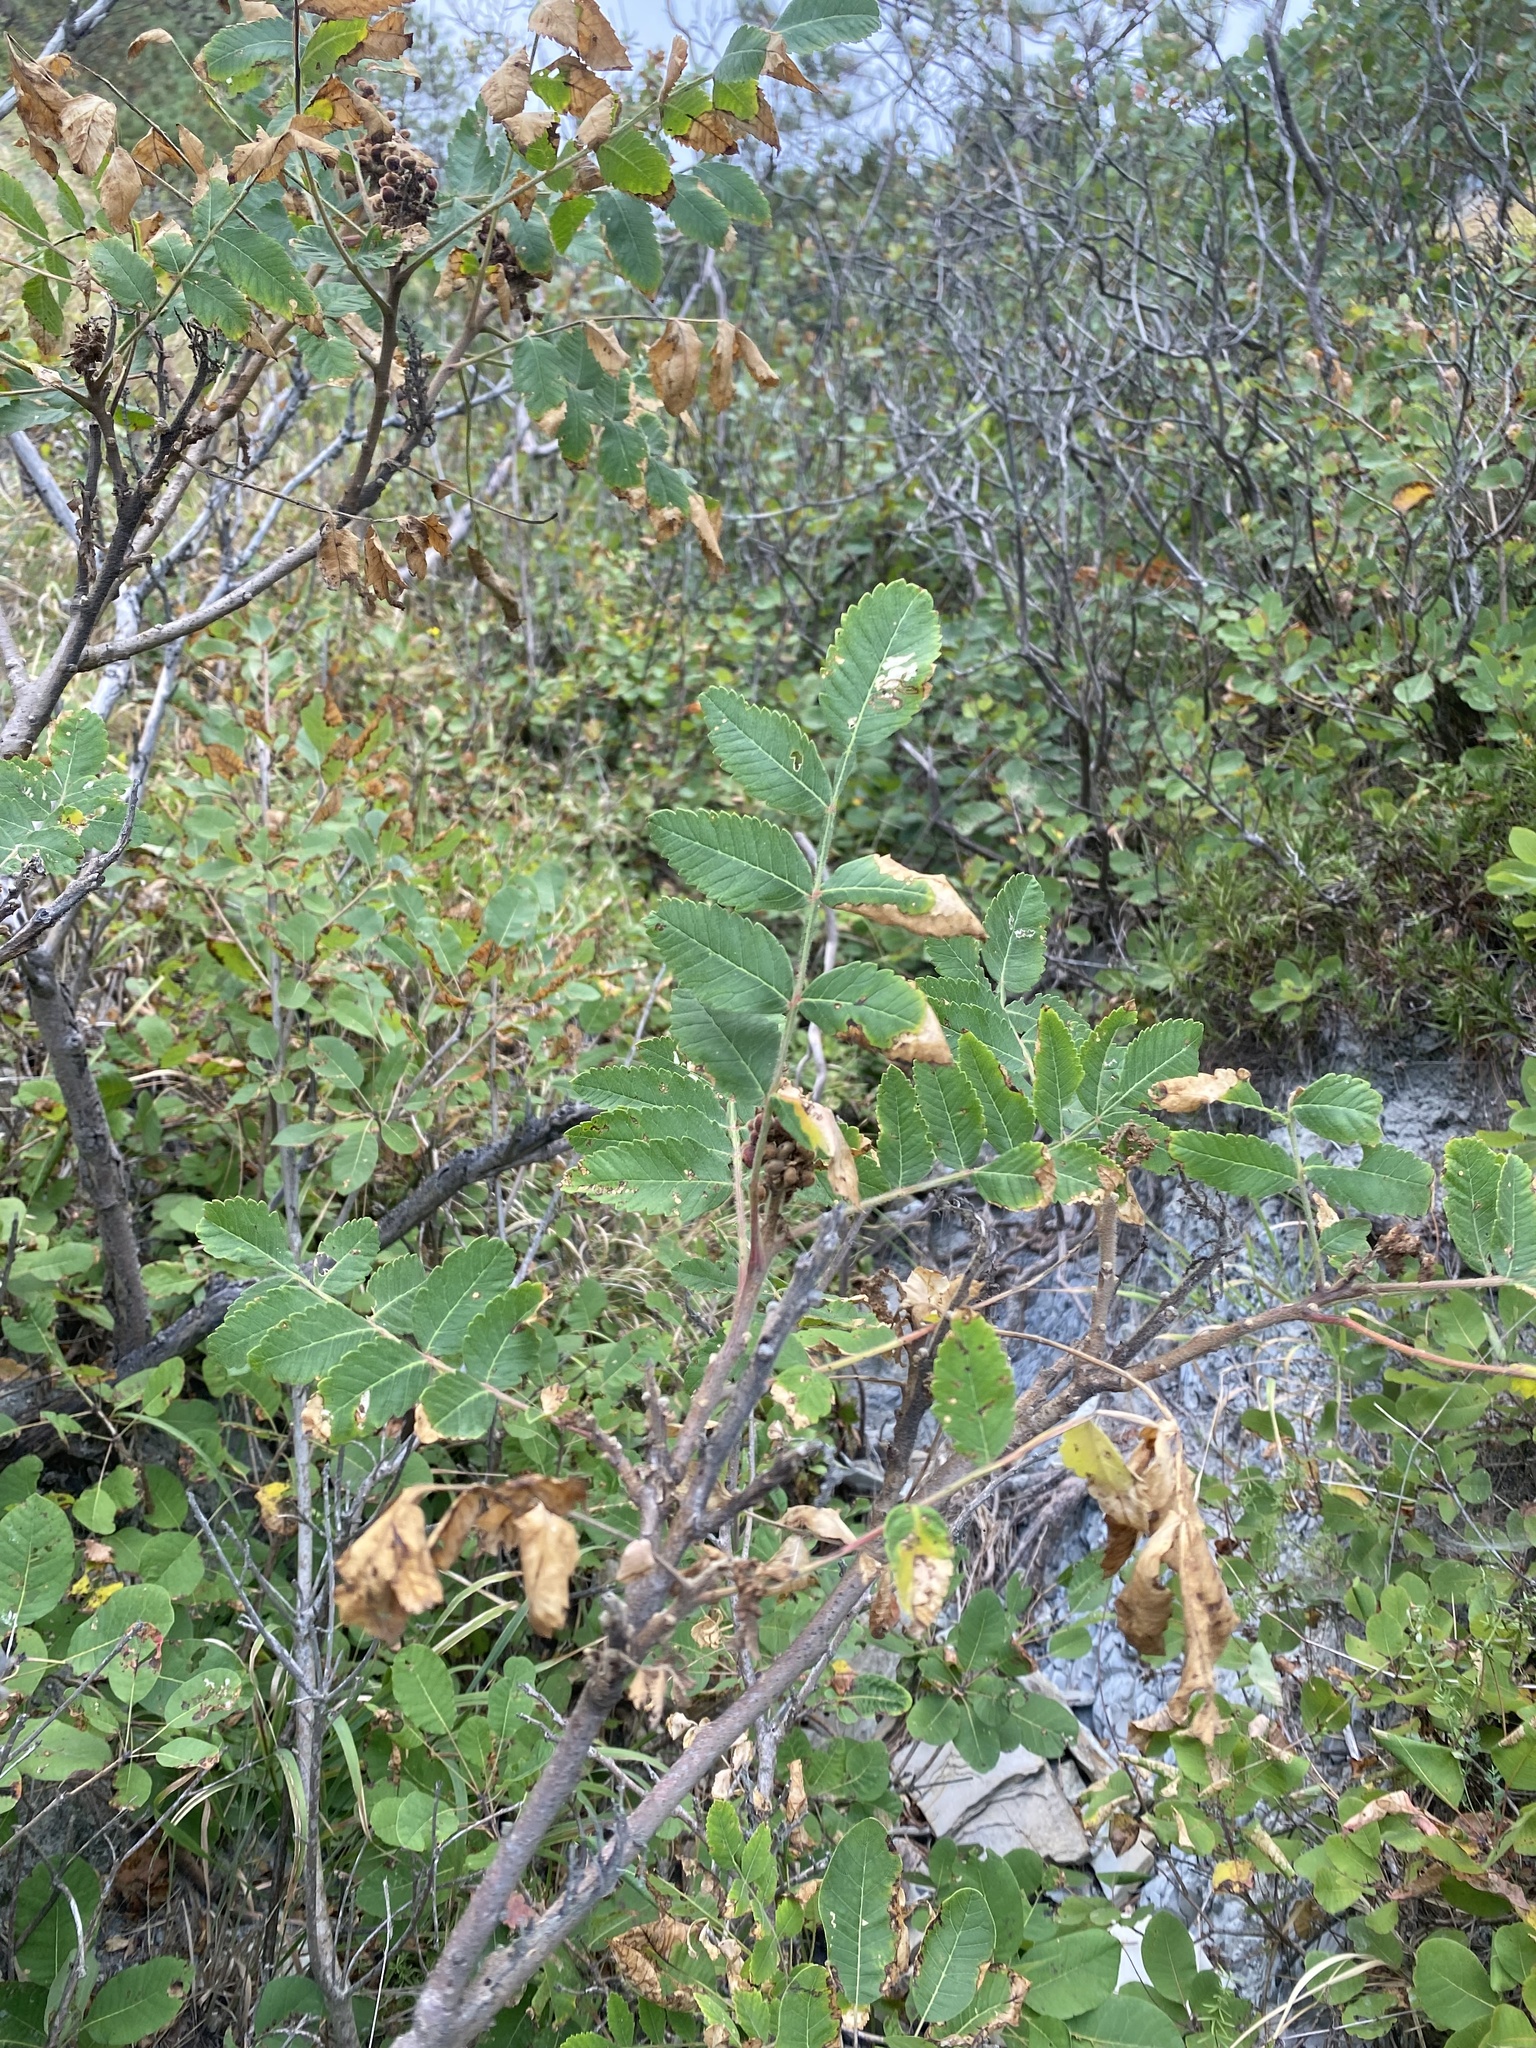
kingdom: Plantae
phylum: Tracheophyta
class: Magnoliopsida
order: Sapindales
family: Anacardiaceae
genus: Rhus
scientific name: Rhus coriaria
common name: Tanner's sumach
